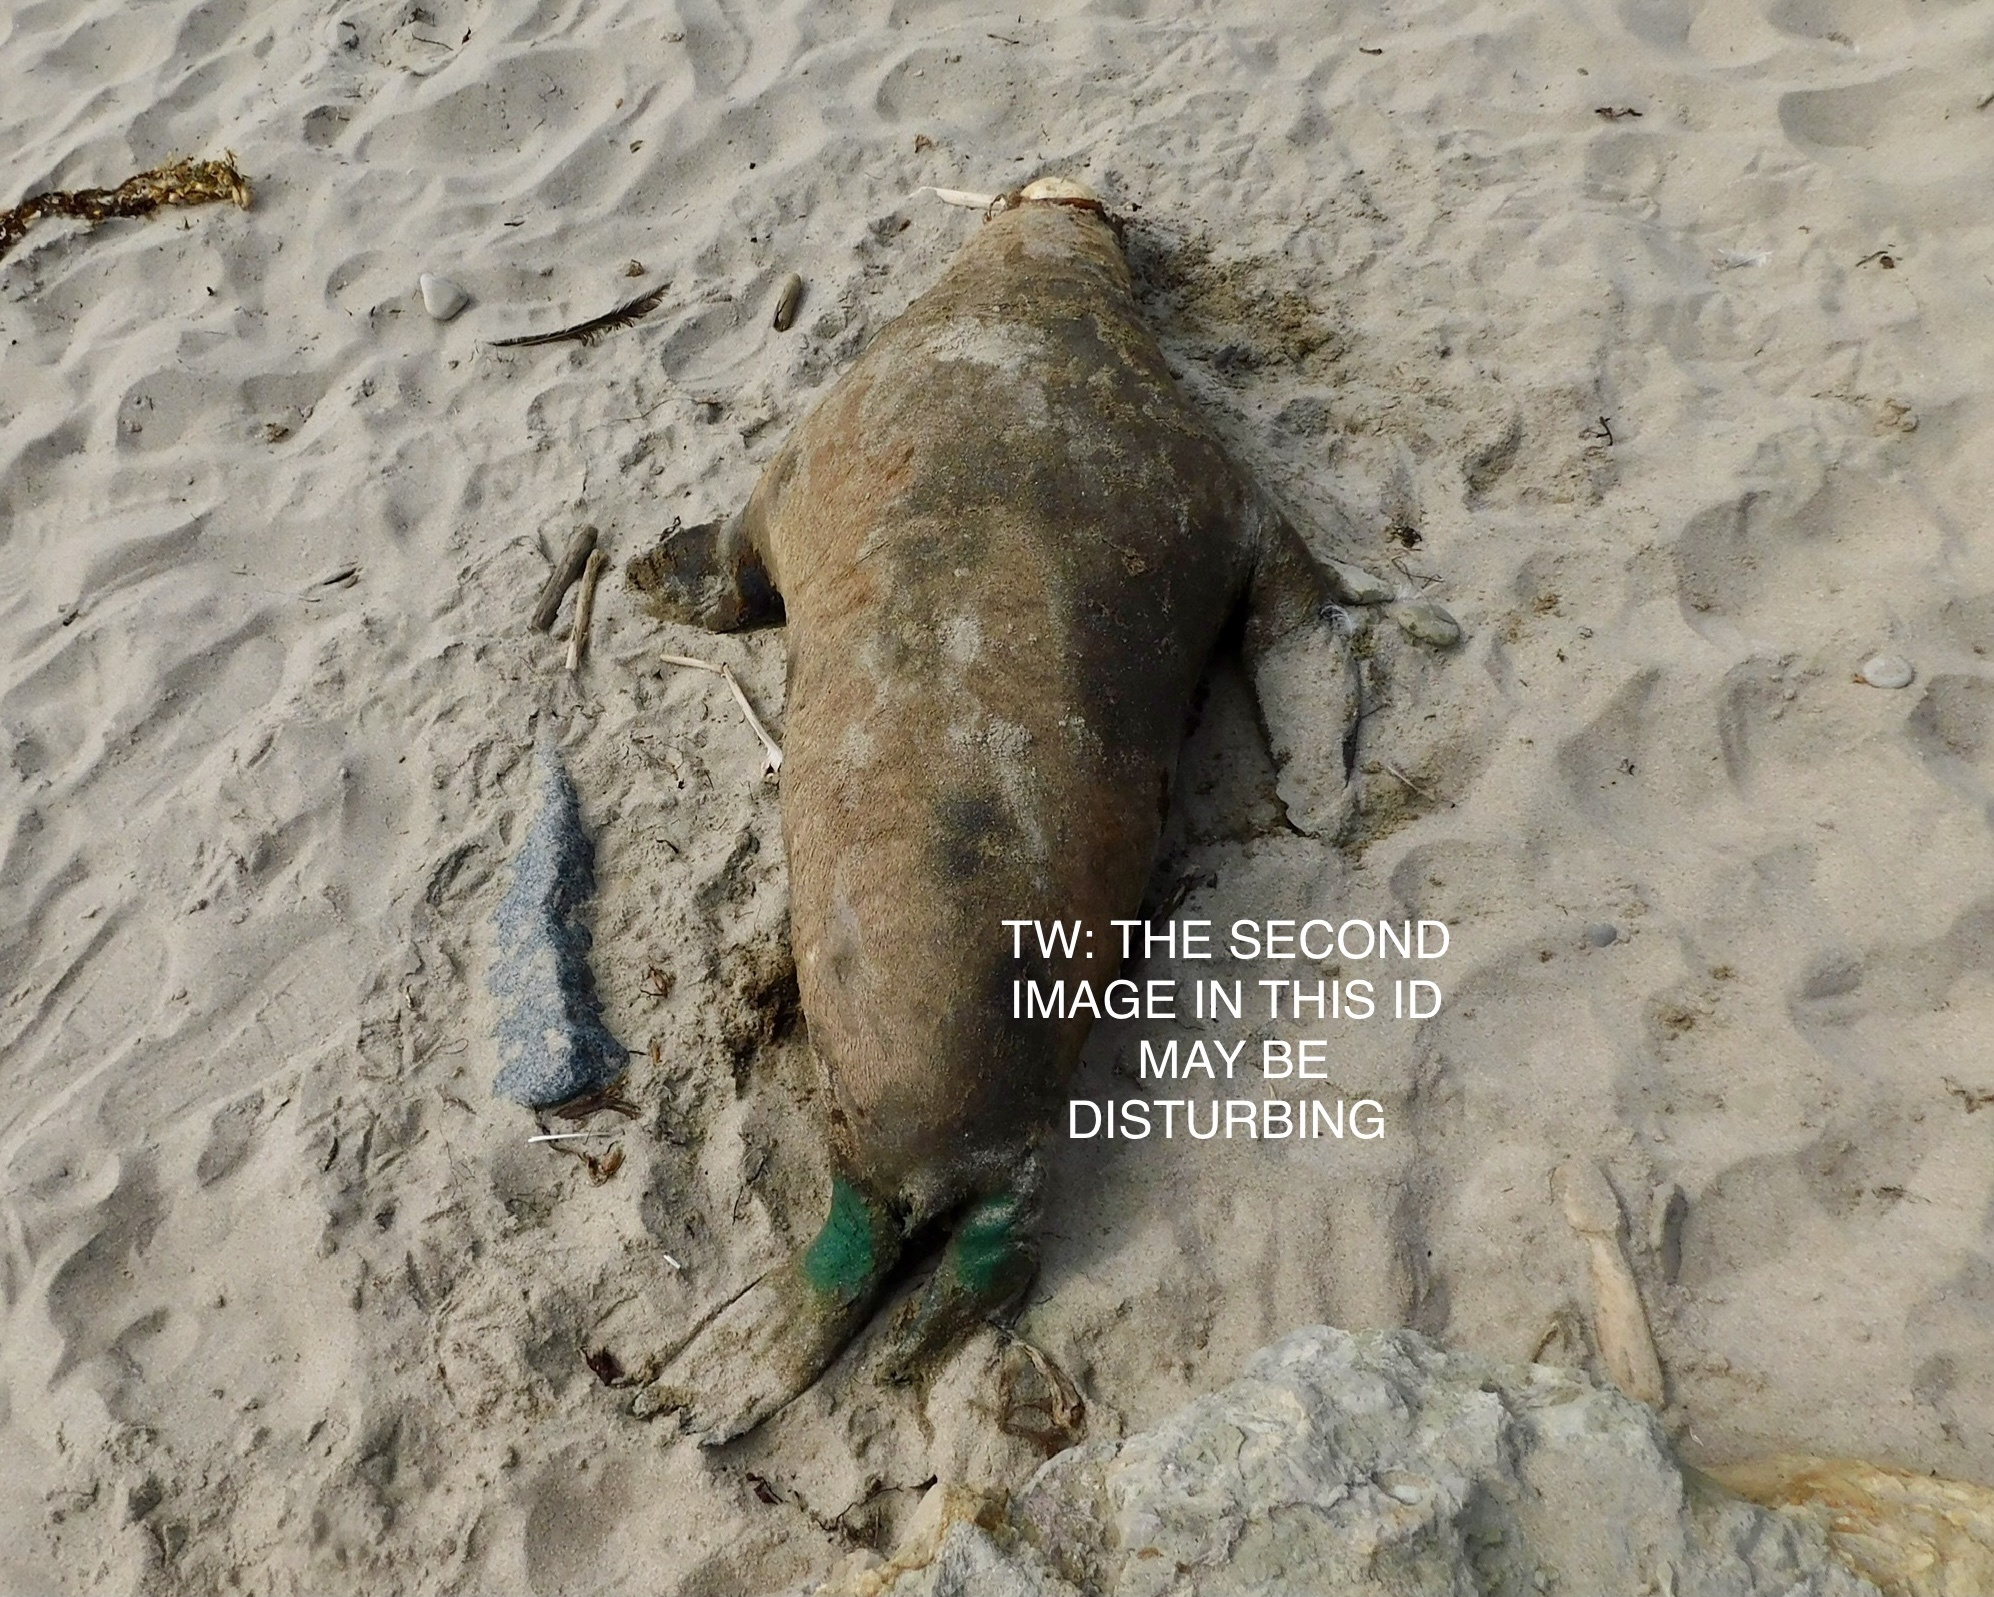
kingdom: Animalia
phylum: Chordata
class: Mammalia
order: Carnivora
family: Otariidae
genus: Zalophus
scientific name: Zalophus californianus
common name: California sea lion
